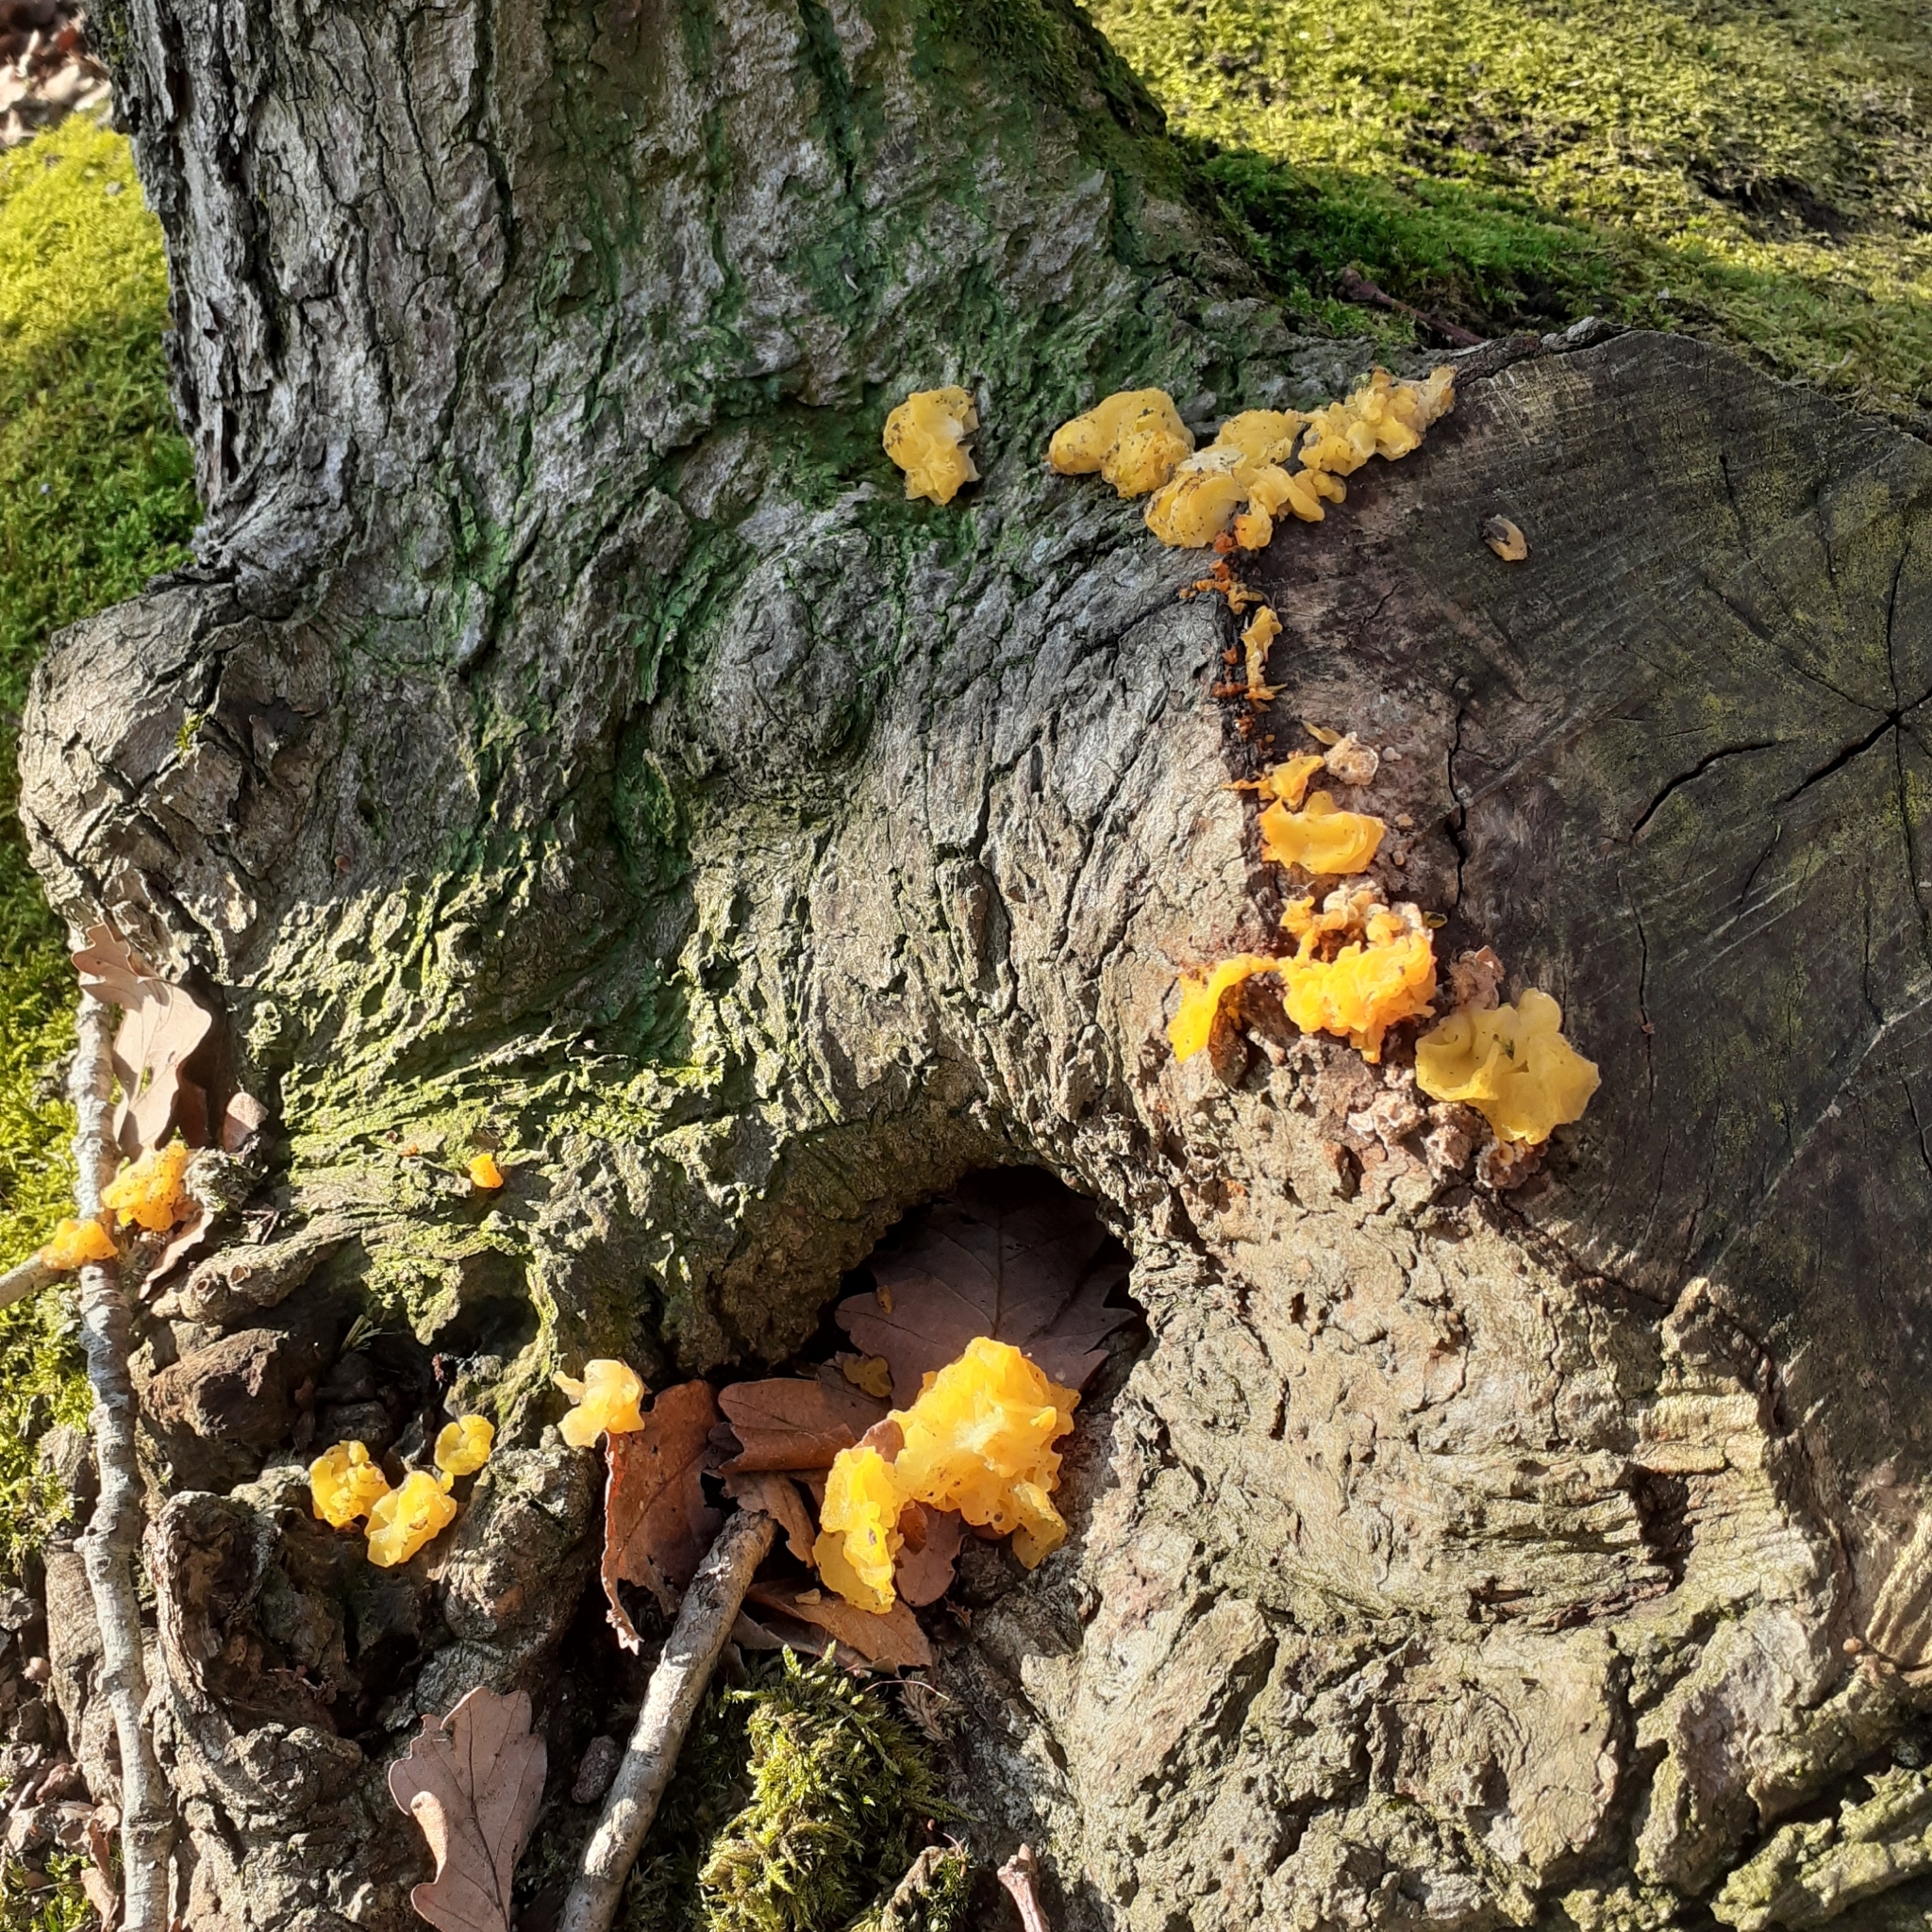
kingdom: Fungi
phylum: Basidiomycota
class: Tremellomycetes
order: Tremellales
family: Naemateliaceae
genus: Naematelia
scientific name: Naematelia aurantia
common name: Golden ear
